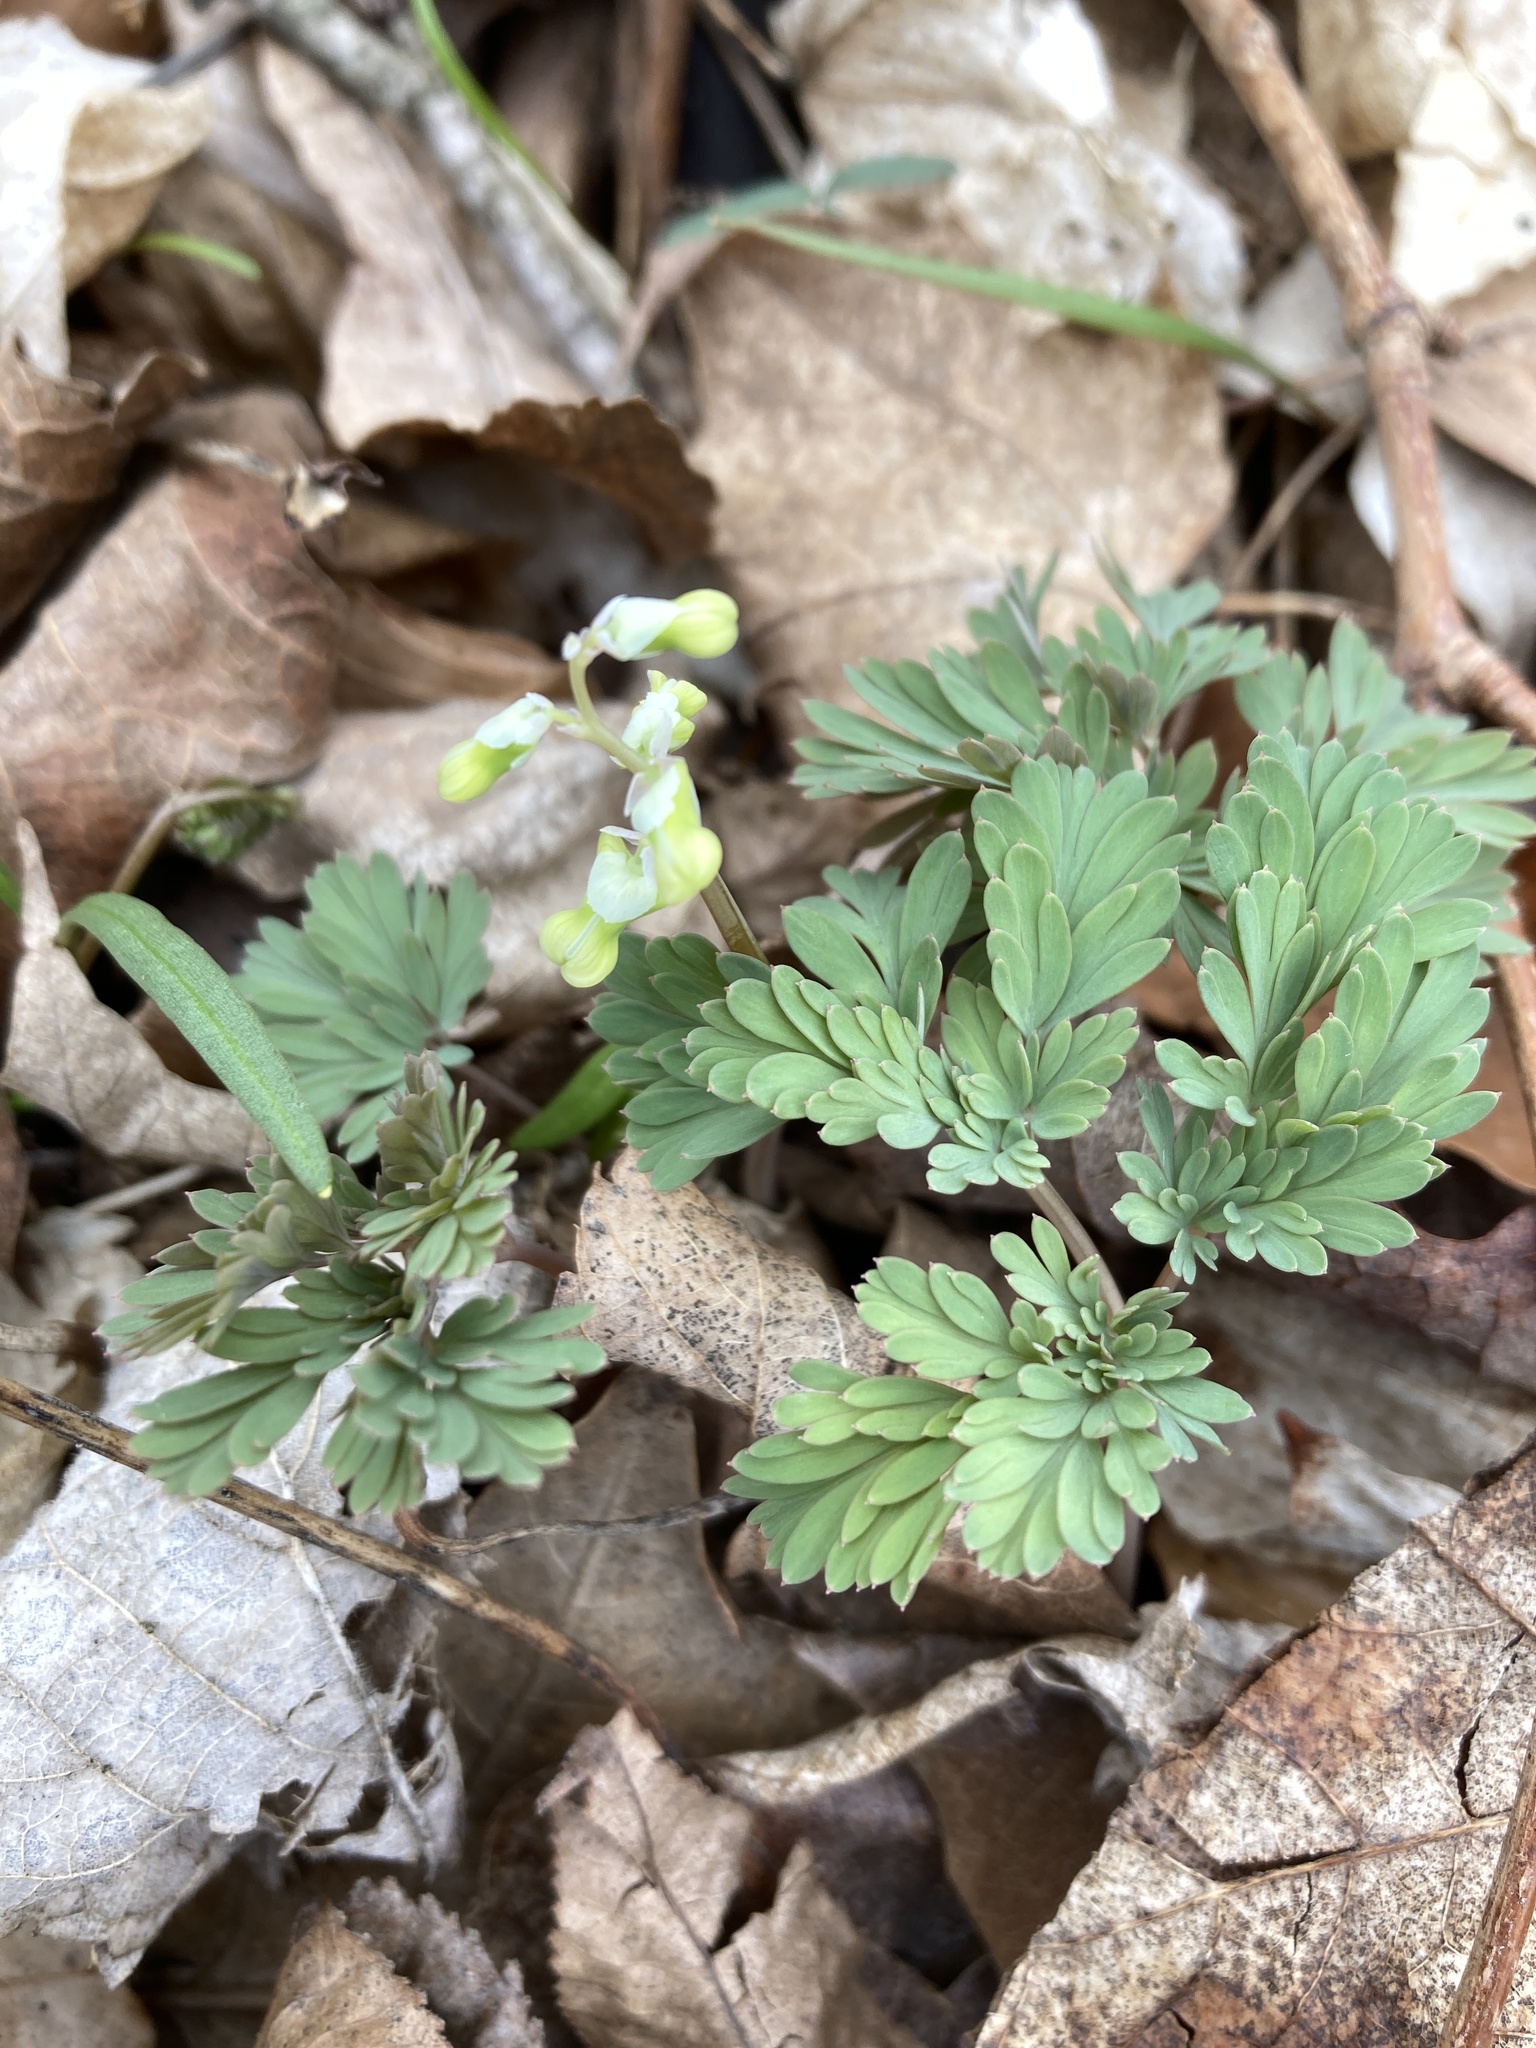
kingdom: Plantae
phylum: Tracheophyta
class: Magnoliopsida
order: Ranunculales
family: Papaveraceae
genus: Dicentra
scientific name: Dicentra cucullaria
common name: Dutchman's breeches
